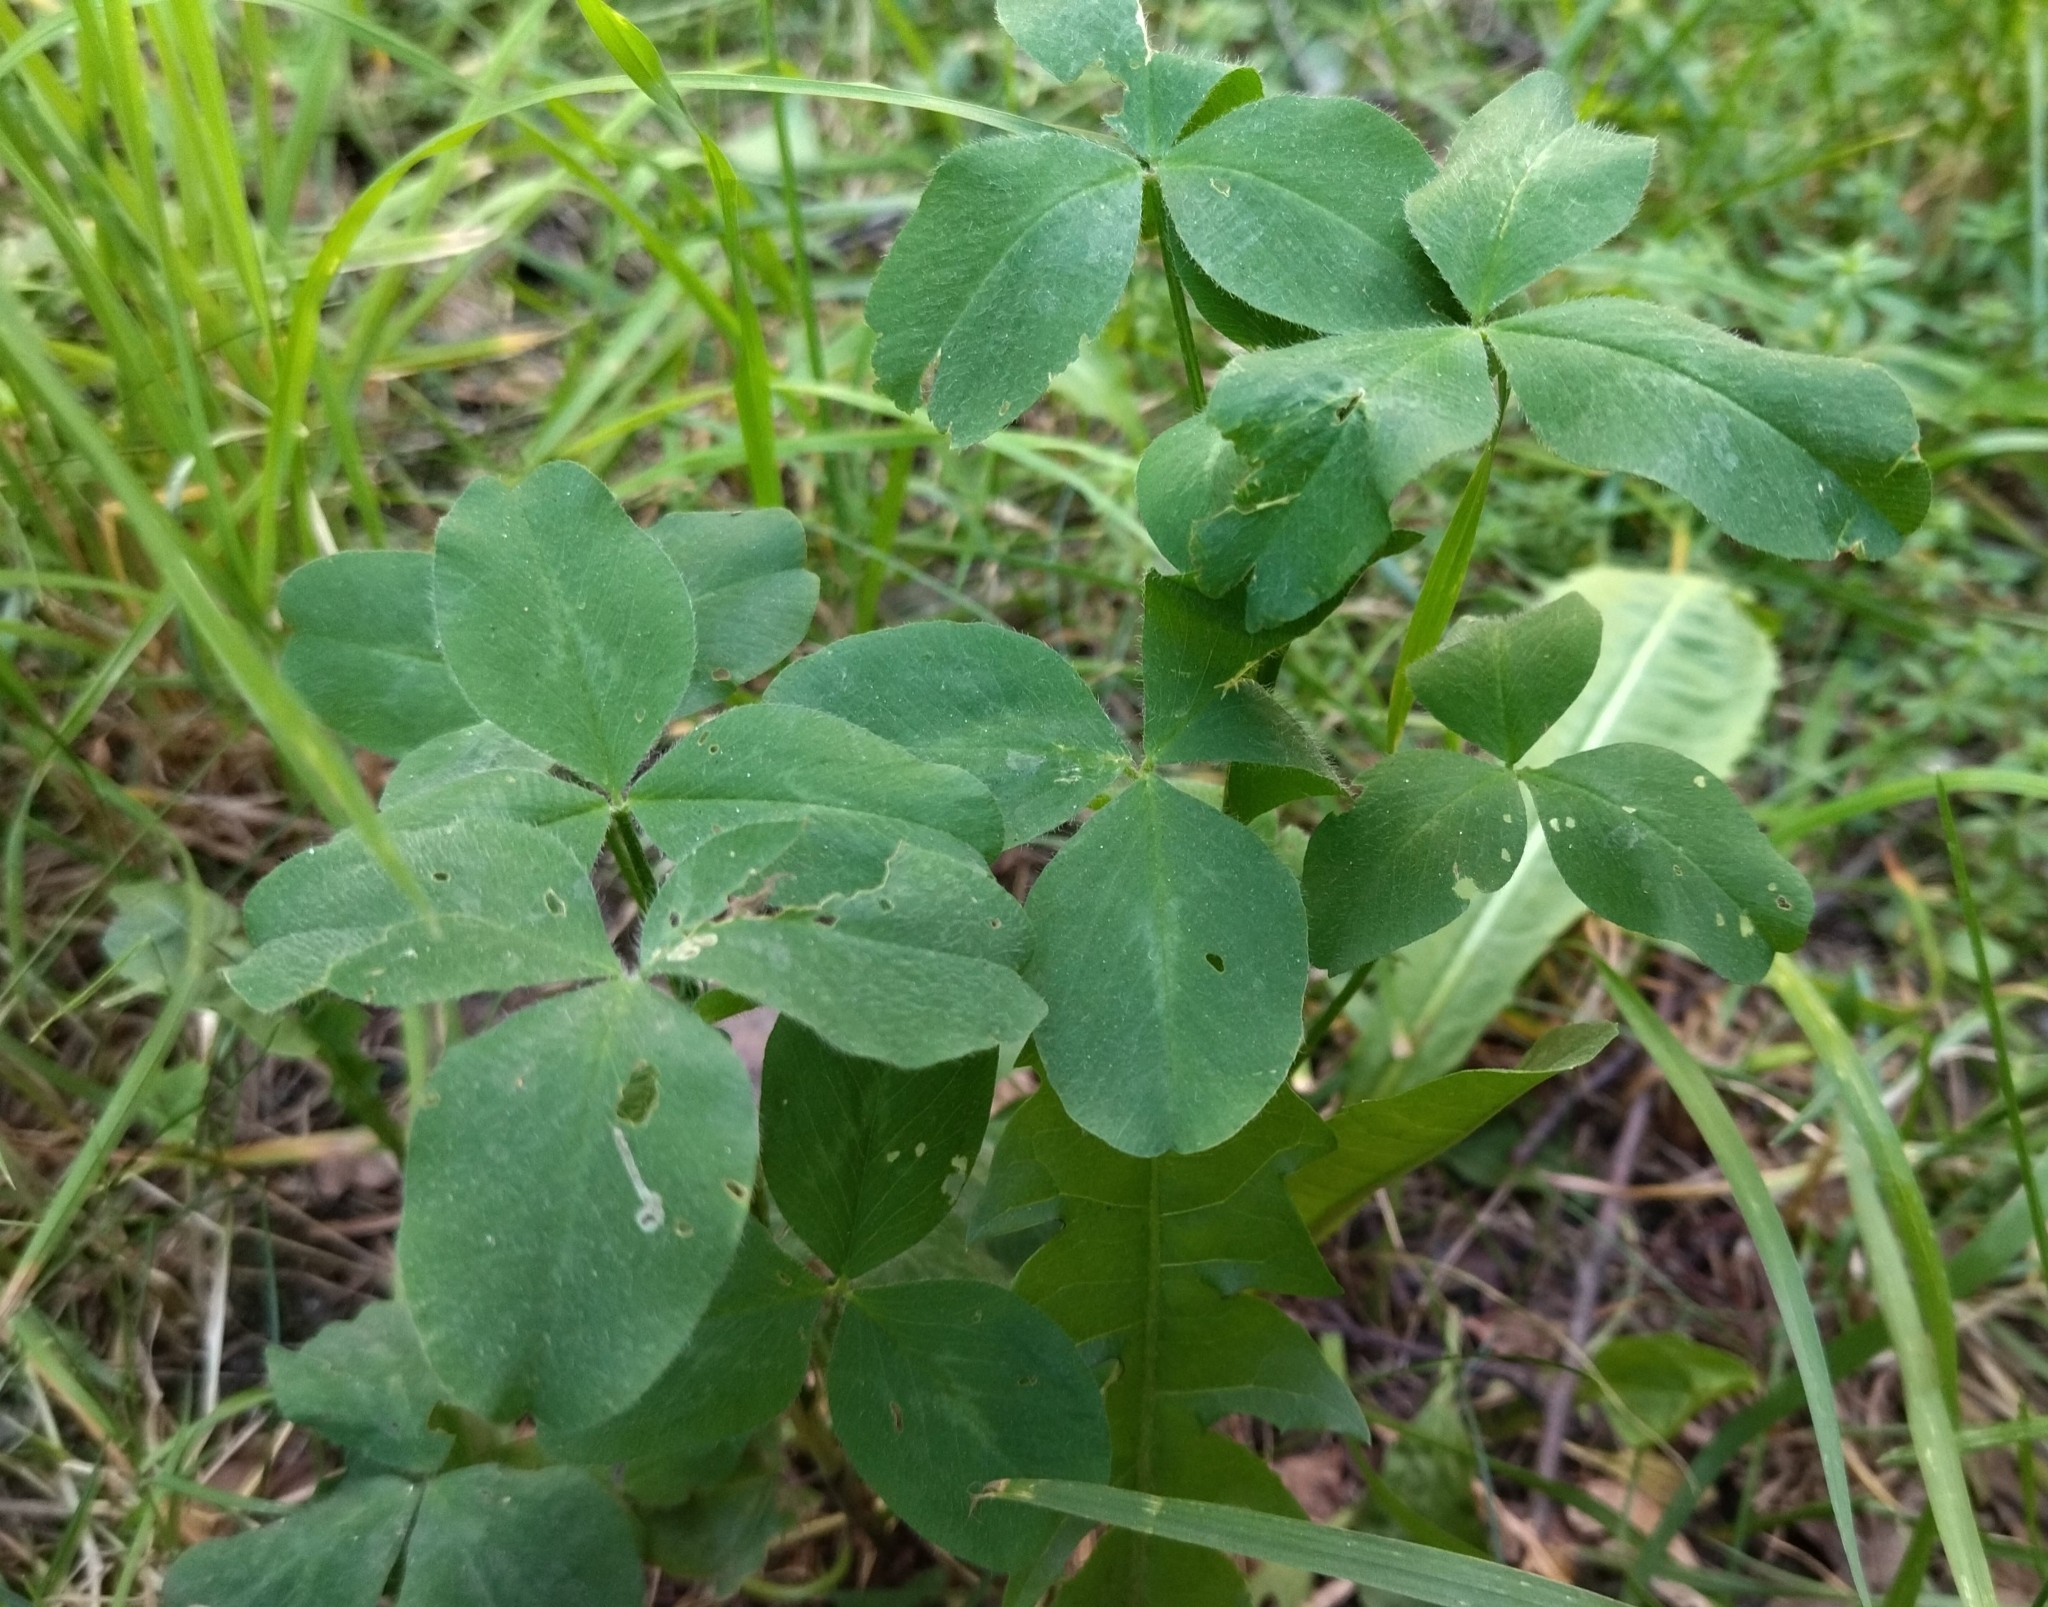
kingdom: Plantae
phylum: Tracheophyta
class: Magnoliopsida
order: Fabales
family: Fabaceae
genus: Trifolium
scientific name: Trifolium pratense
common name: Red clover
